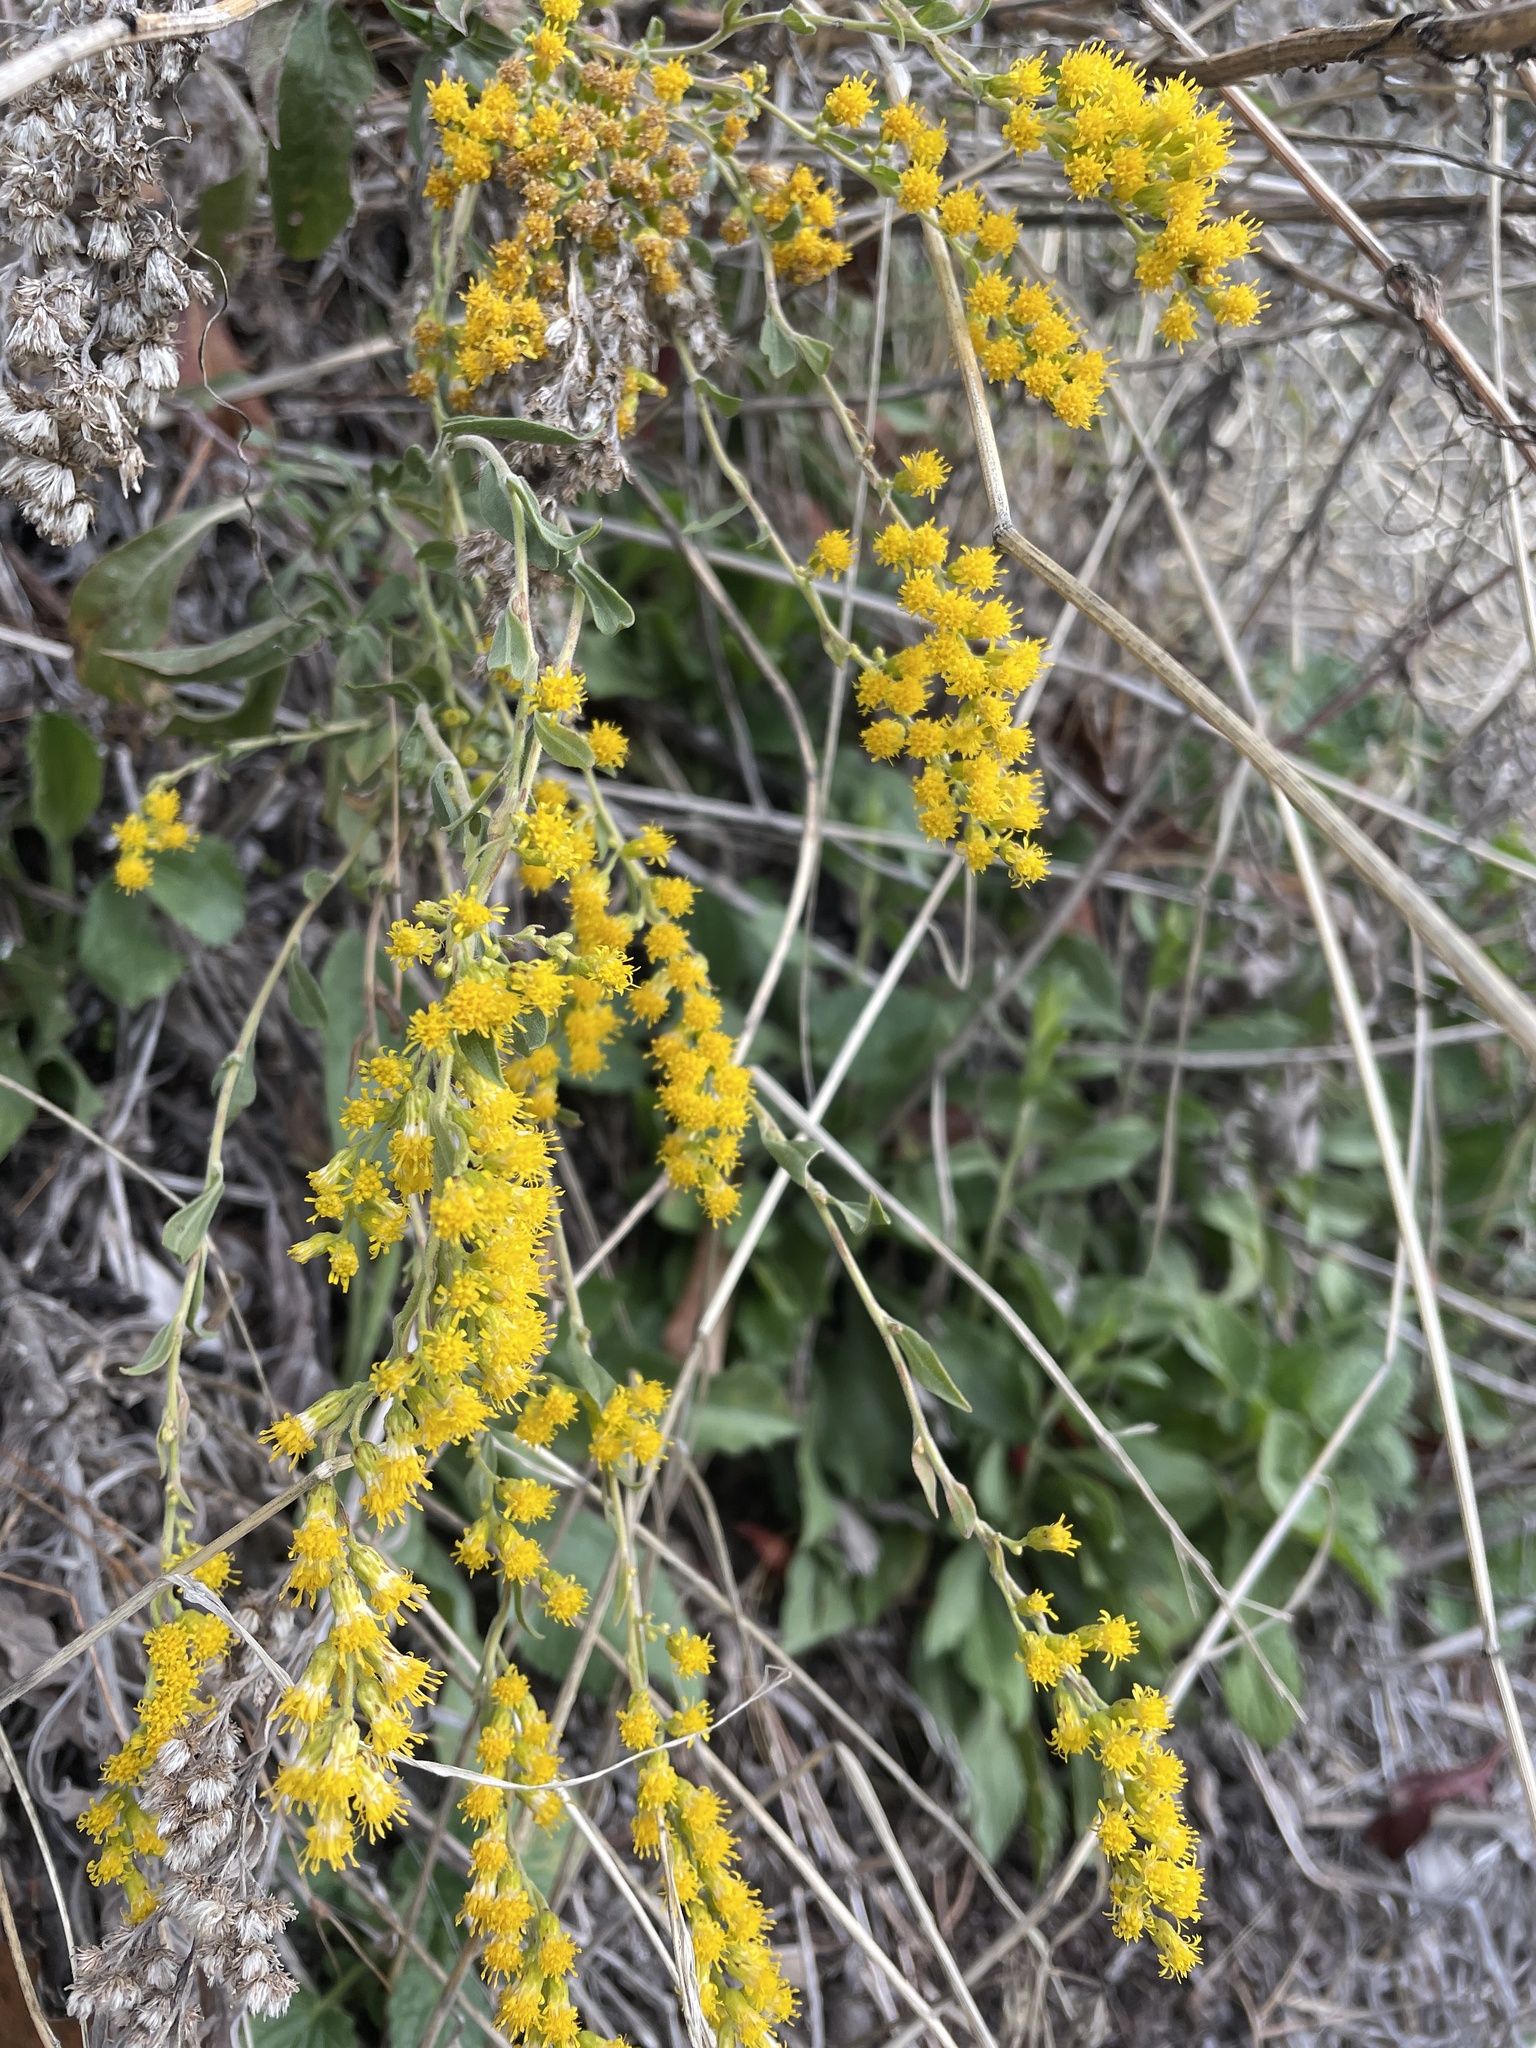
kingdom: Plantae
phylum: Tracheophyta
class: Magnoliopsida
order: Asterales
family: Asteraceae
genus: Solidago
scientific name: Solidago velutina
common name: Three-nerve goldenrod
